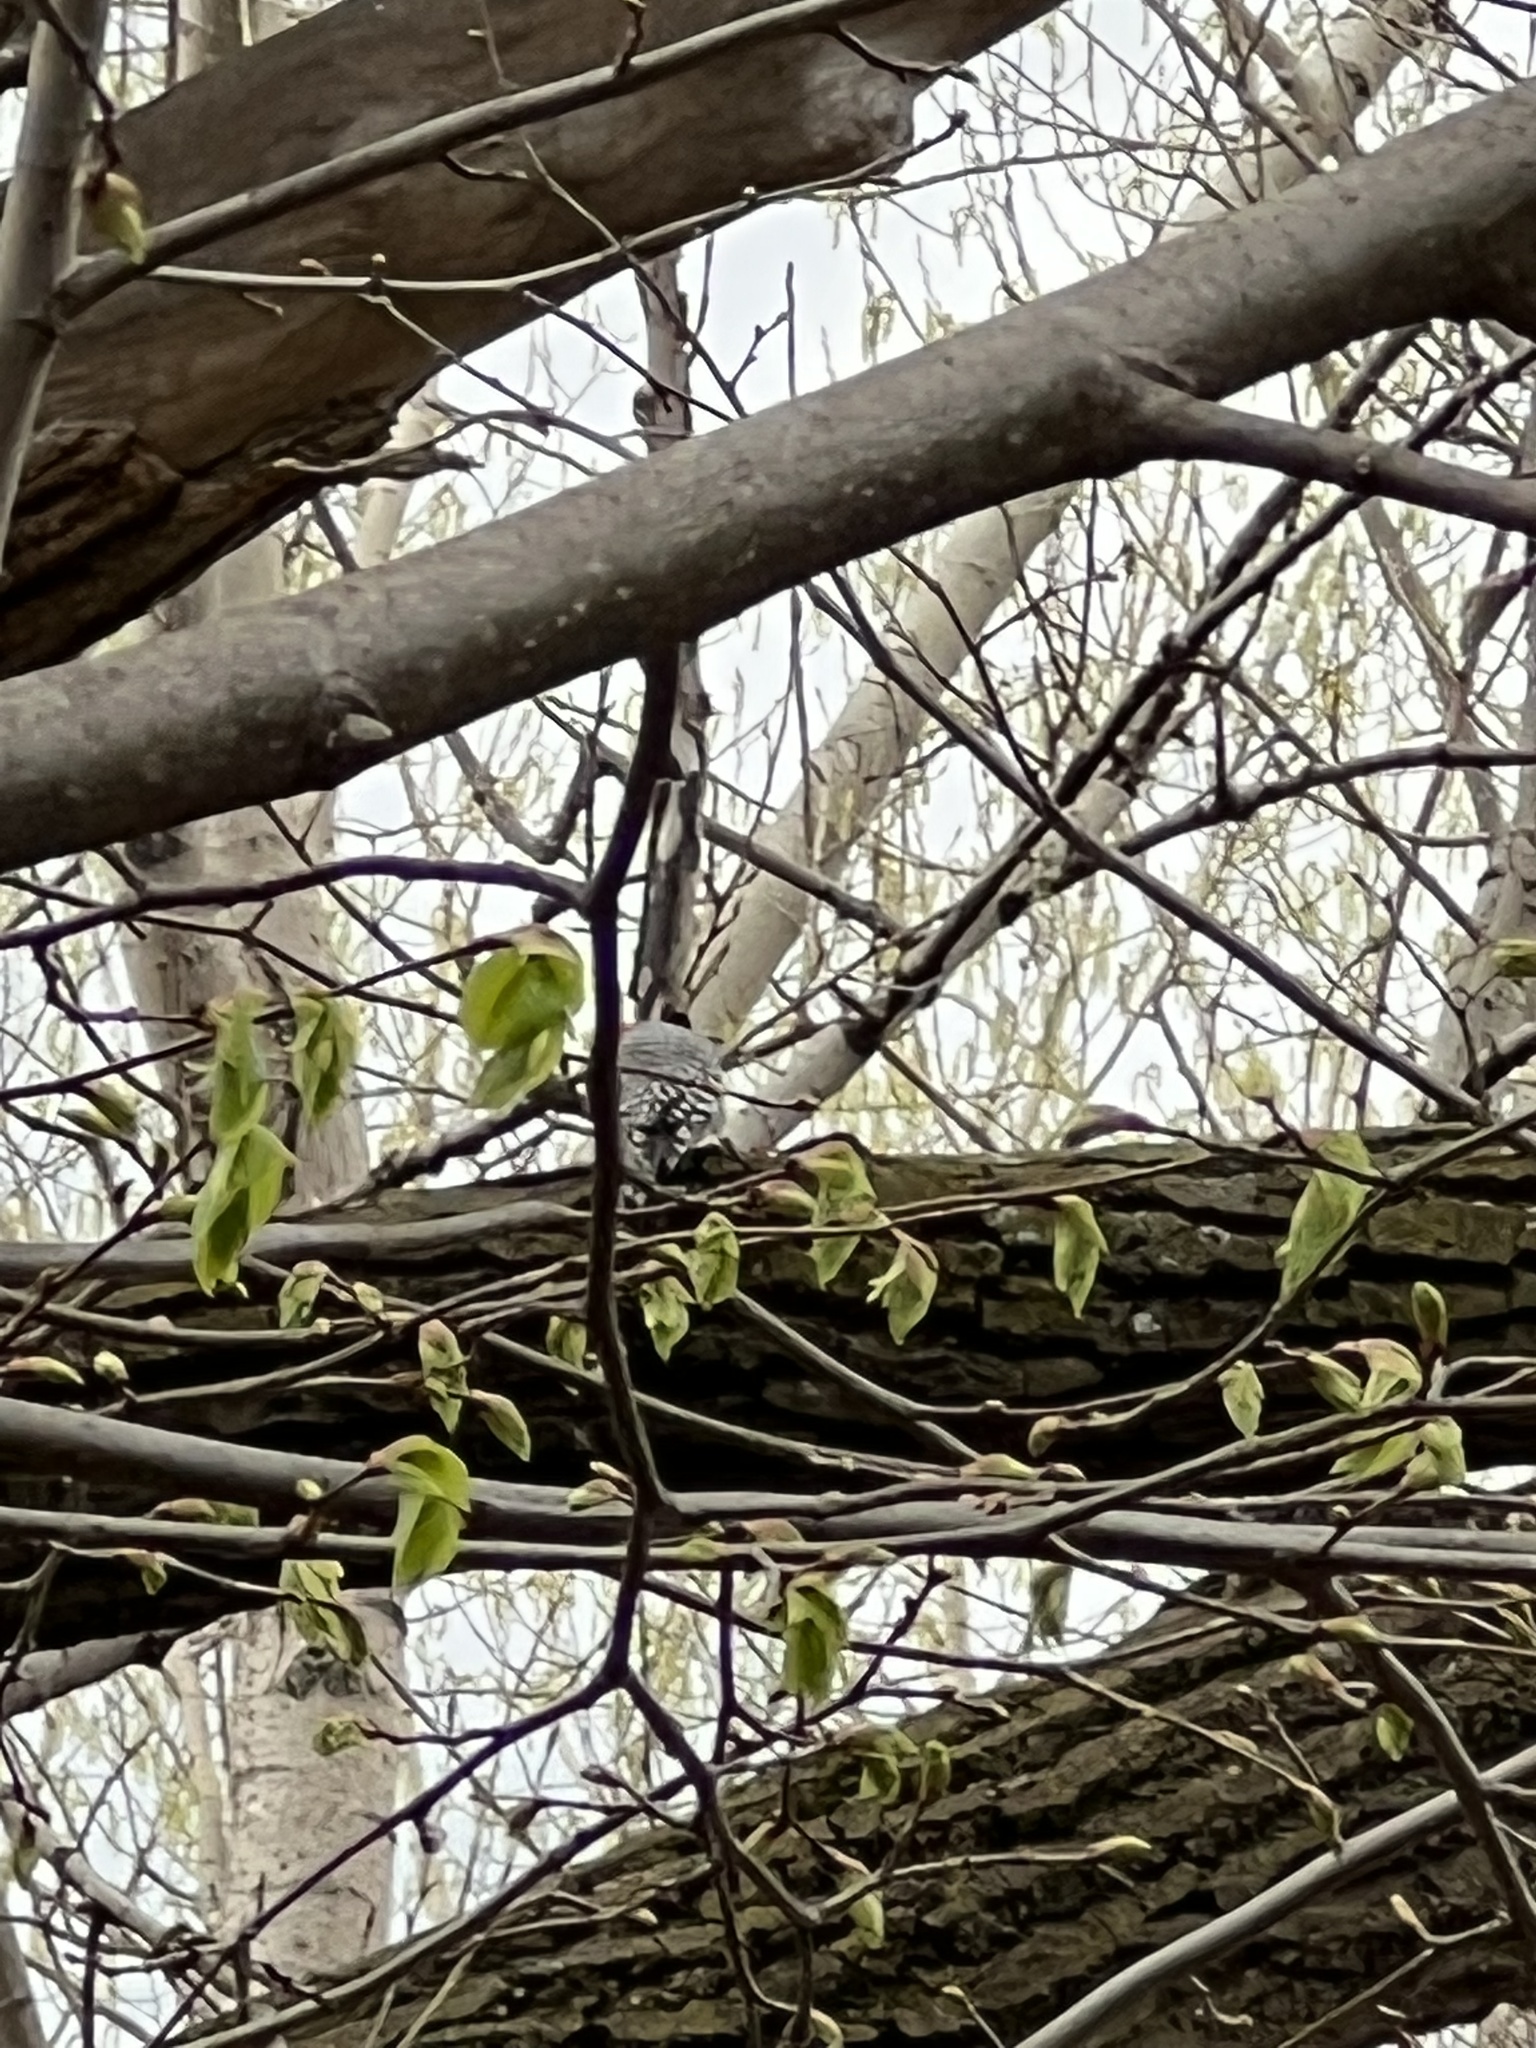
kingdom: Animalia
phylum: Chordata
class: Aves
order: Piciformes
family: Picidae
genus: Melanerpes
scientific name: Melanerpes carolinus
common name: Red-bellied woodpecker
